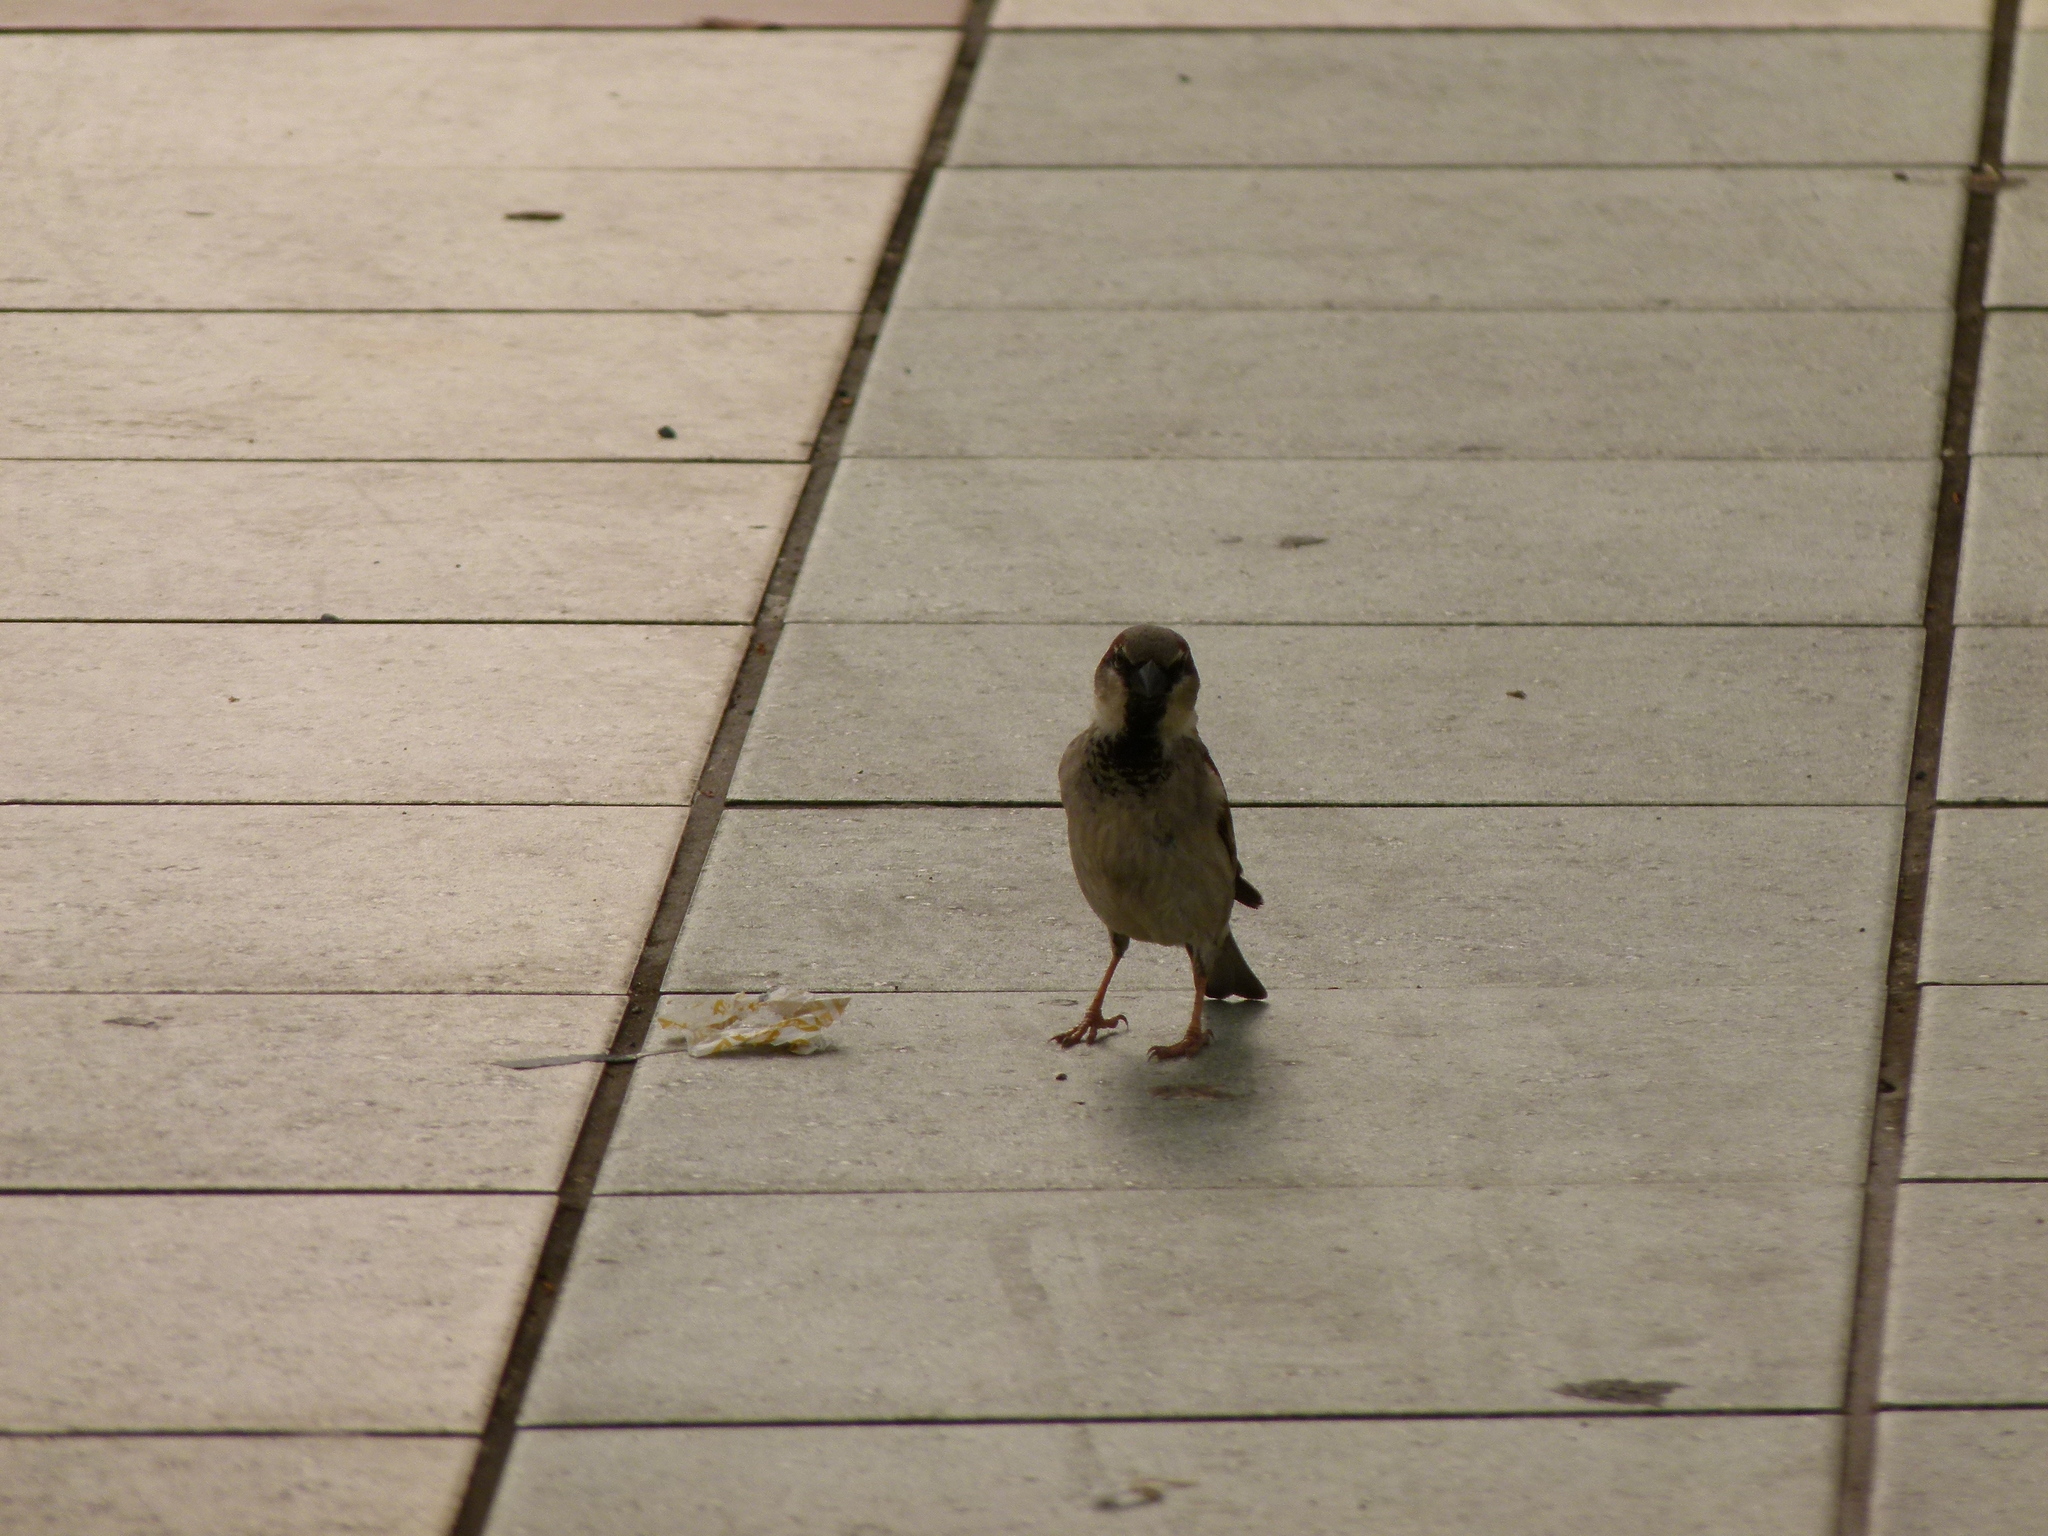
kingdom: Animalia
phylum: Chordata
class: Aves
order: Passeriformes
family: Passeridae
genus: Passer
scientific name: Passer domesticus
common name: House sparrow
